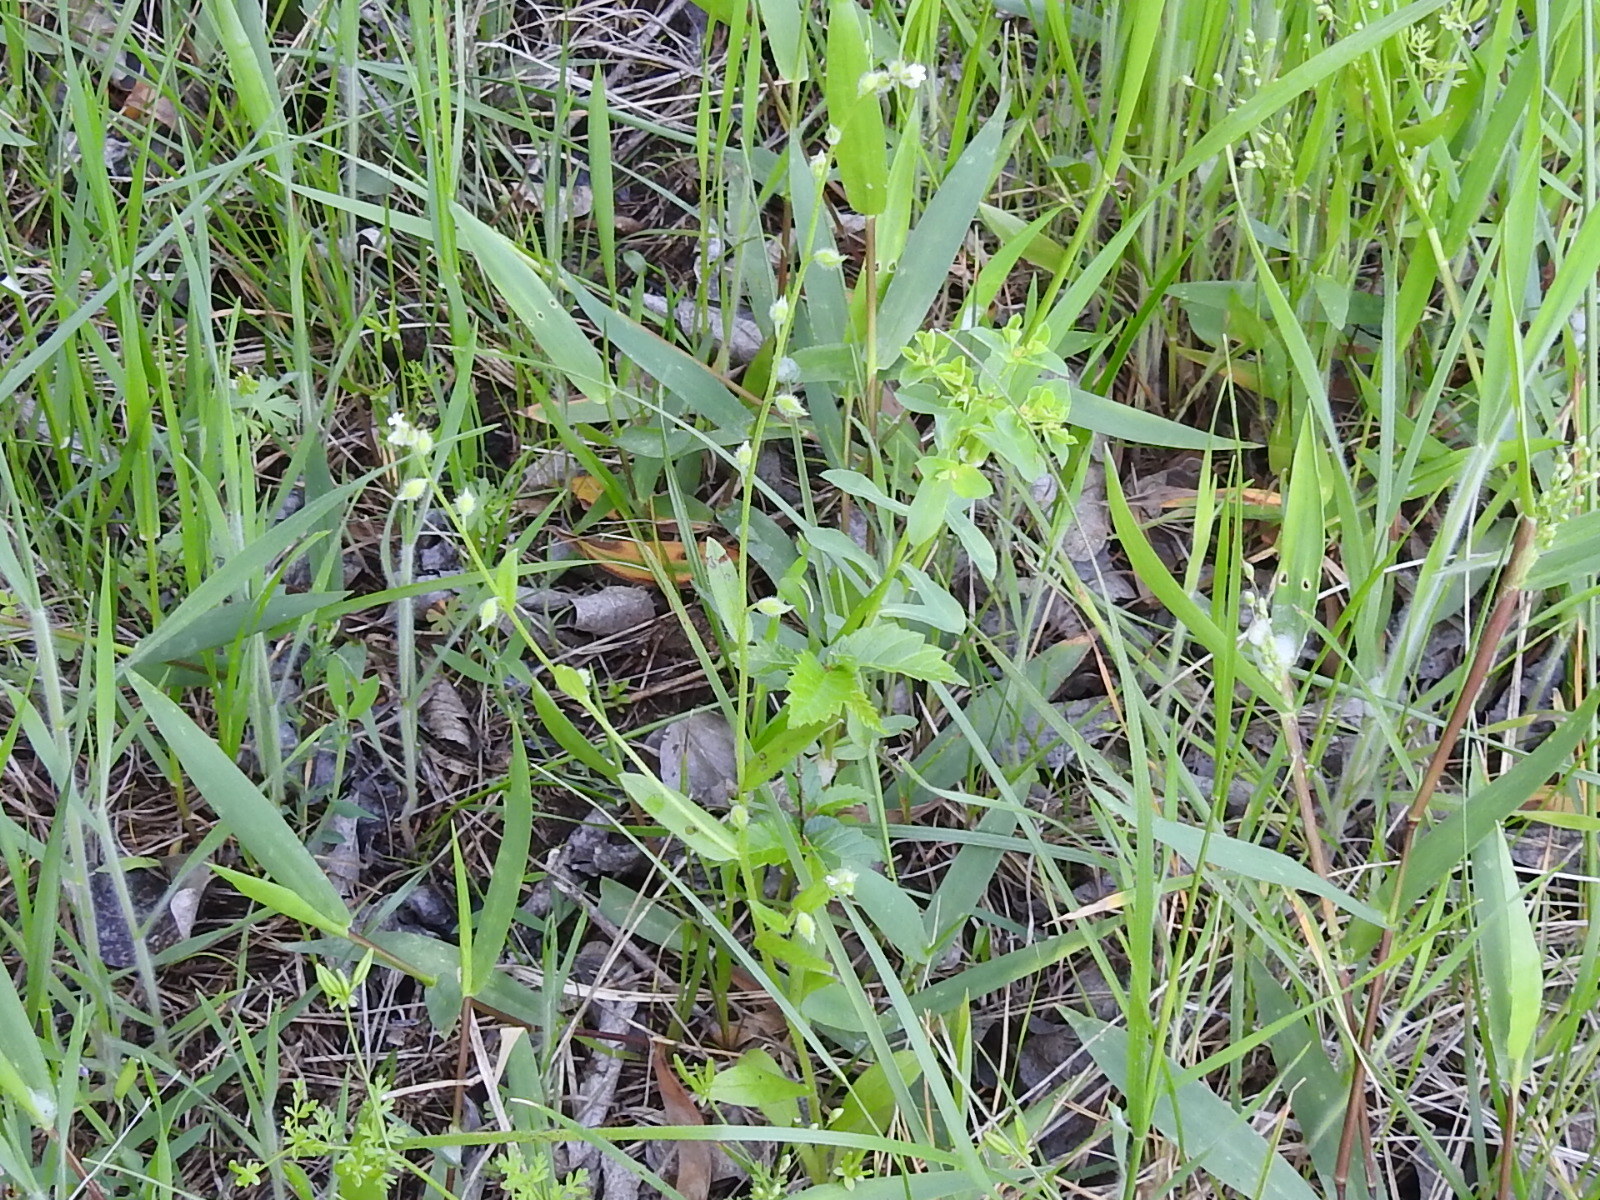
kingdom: Plantae
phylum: Tracheophyta
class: Magnoliopsida
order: Boraginales
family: Boraginaceae
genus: Myosotis
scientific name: Myosotis macrosperma
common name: Large-seed forget-me-not
